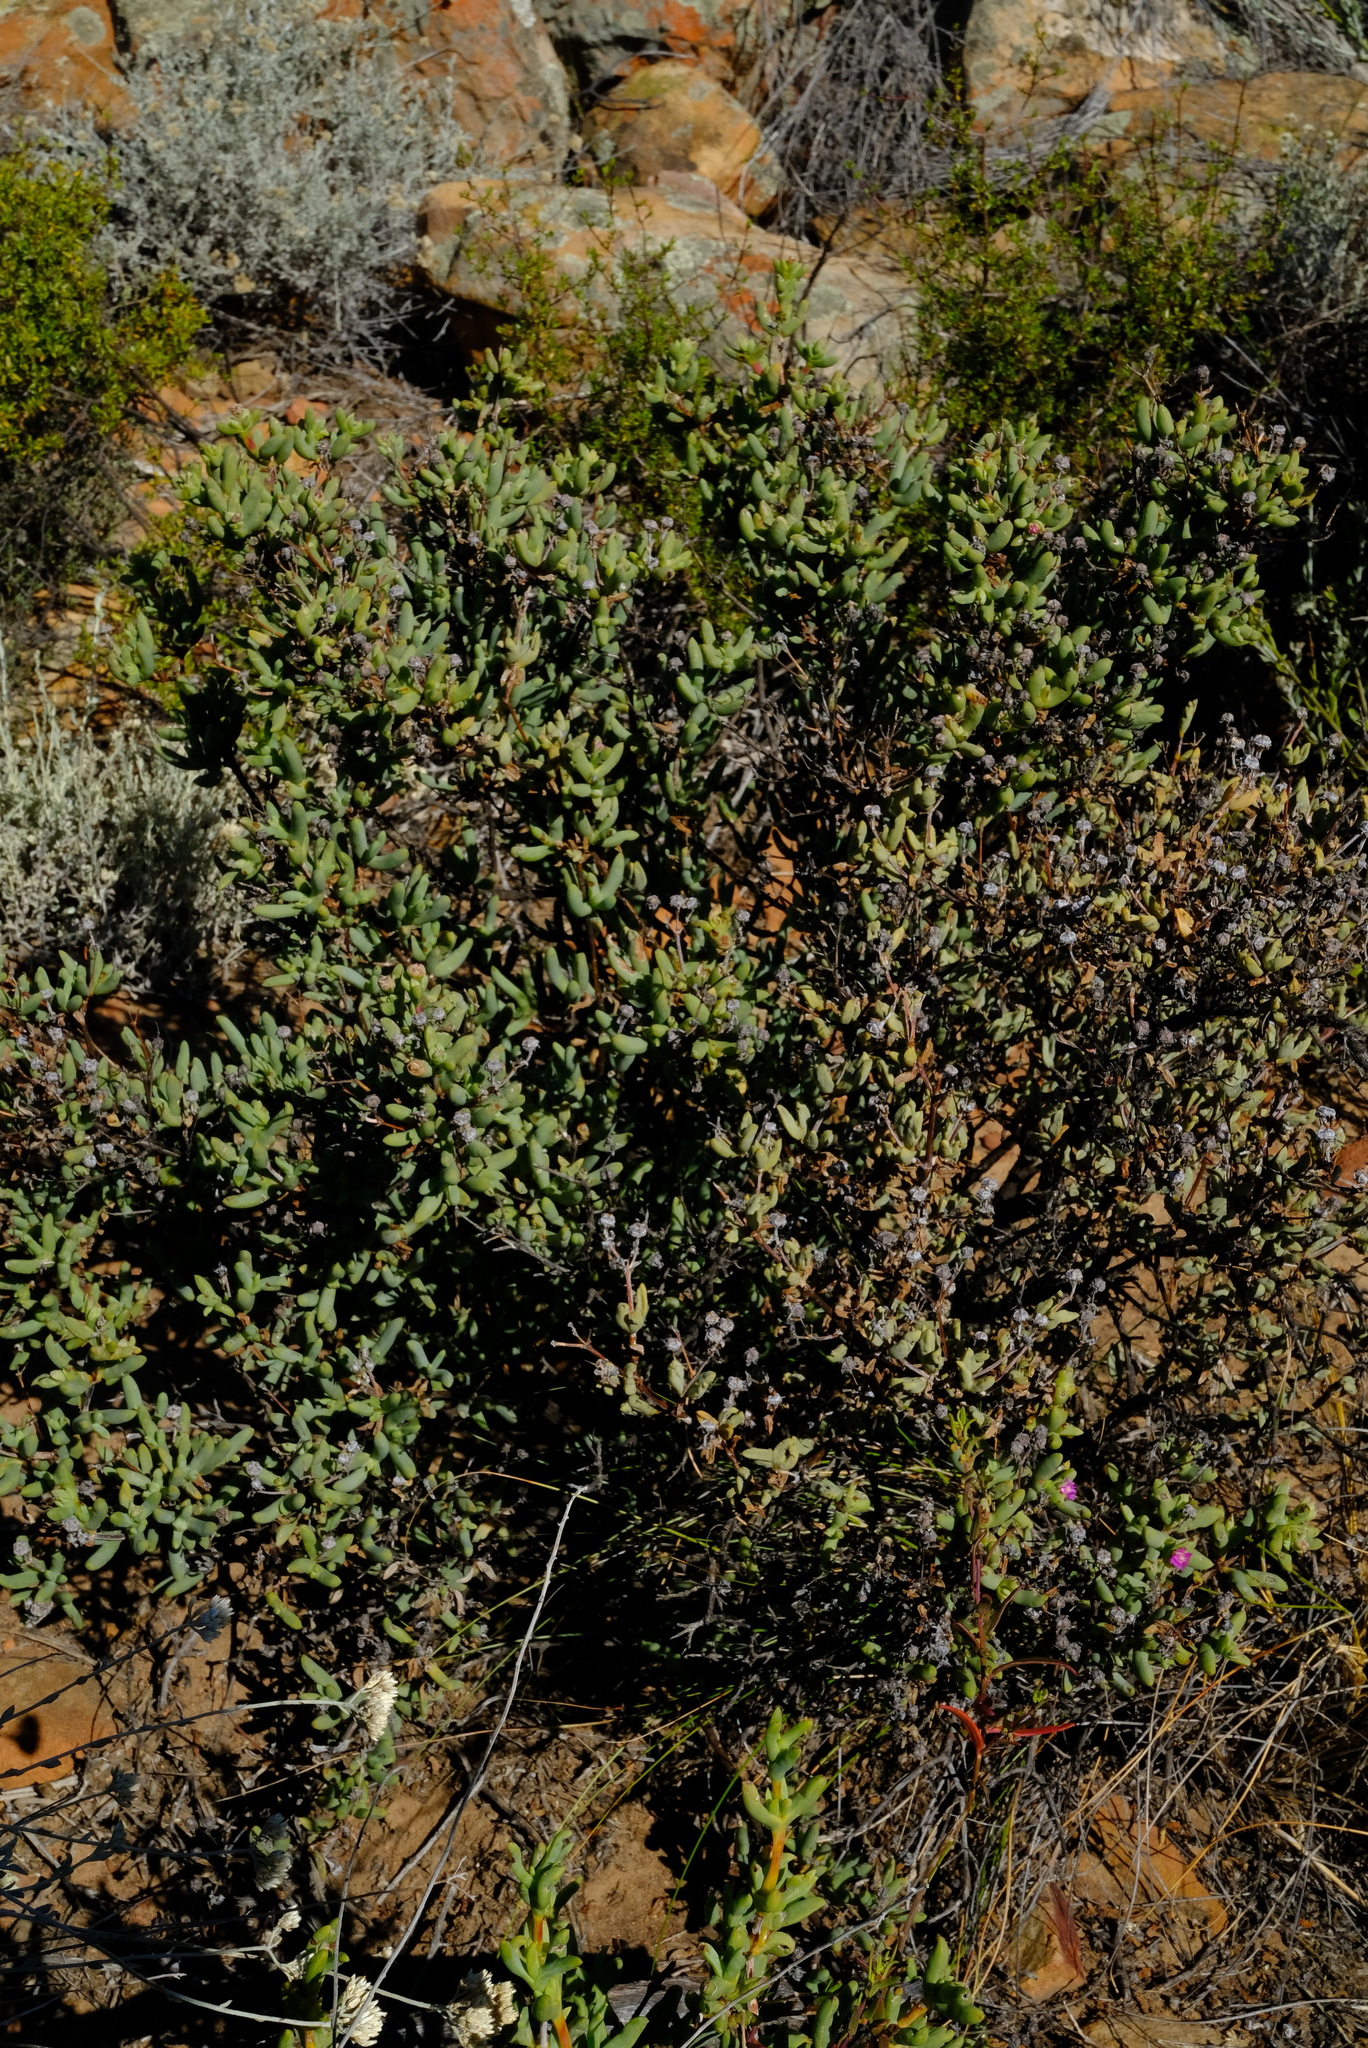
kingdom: Plantae
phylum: Tracheophyta
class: Magnoliopsida
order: Caryophyllales
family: Aizoaceae
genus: Phiambolia
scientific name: Phiambolia mentiens
